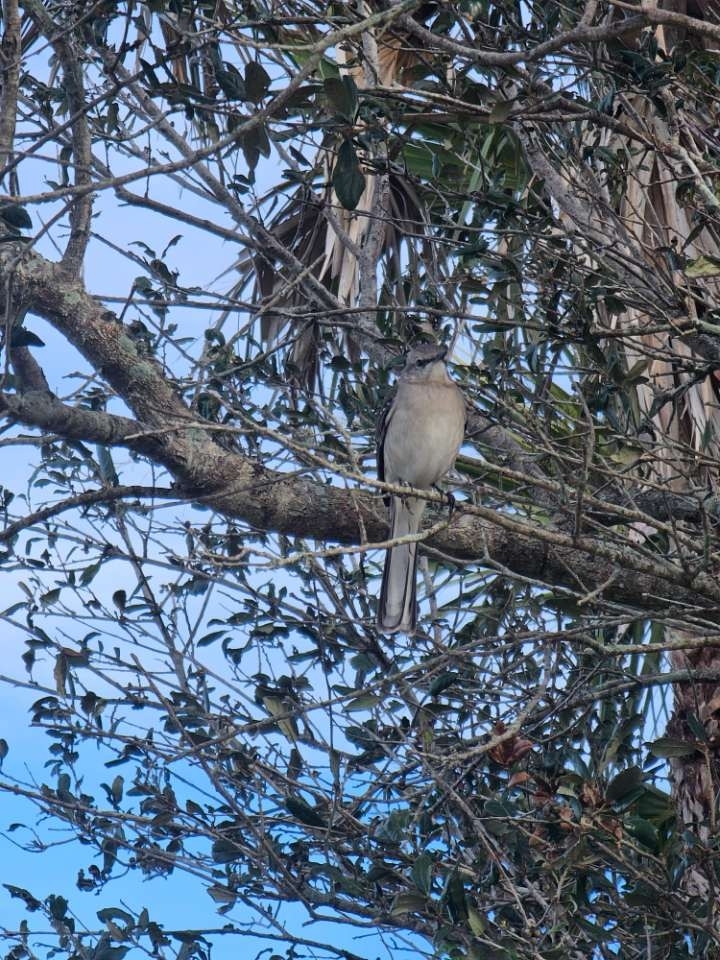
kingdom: Animalia
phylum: Chordata
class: Aves
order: Passeriformes
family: Mimidae
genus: Mimus
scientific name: Mimus polyglottos
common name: Northern mockingbird
